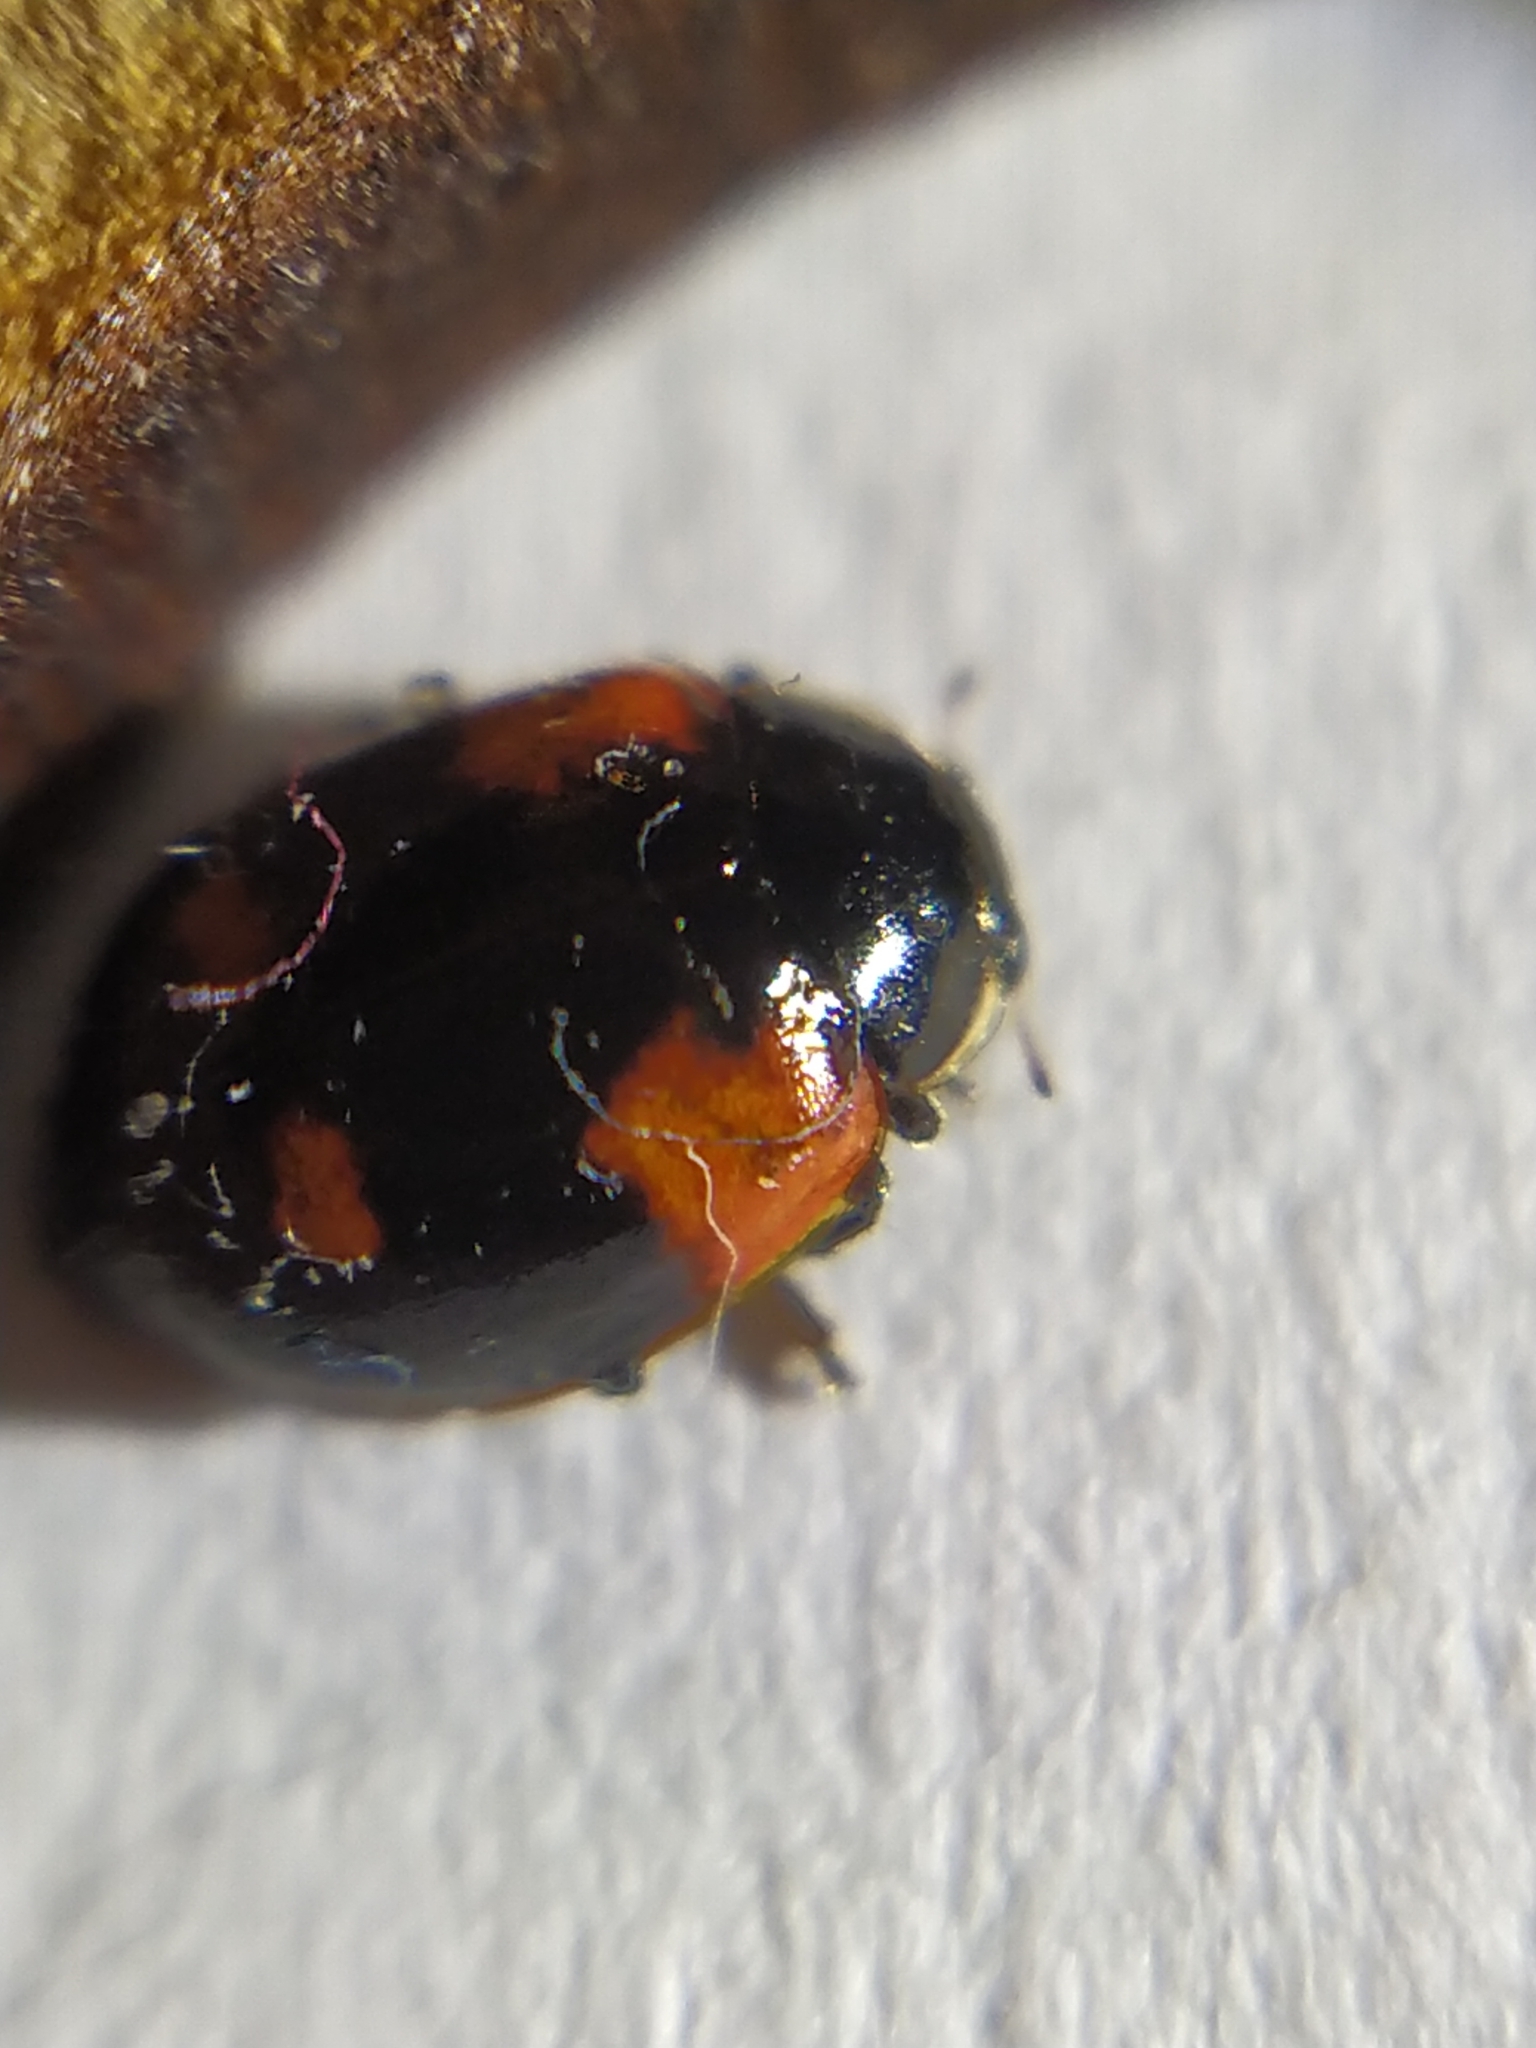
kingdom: Animalia
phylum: Arthropoda
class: Insecta
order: Coleoptera
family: Coccinellidae
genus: Adalia
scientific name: Adalia bipunctata
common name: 2-spot ladybird
